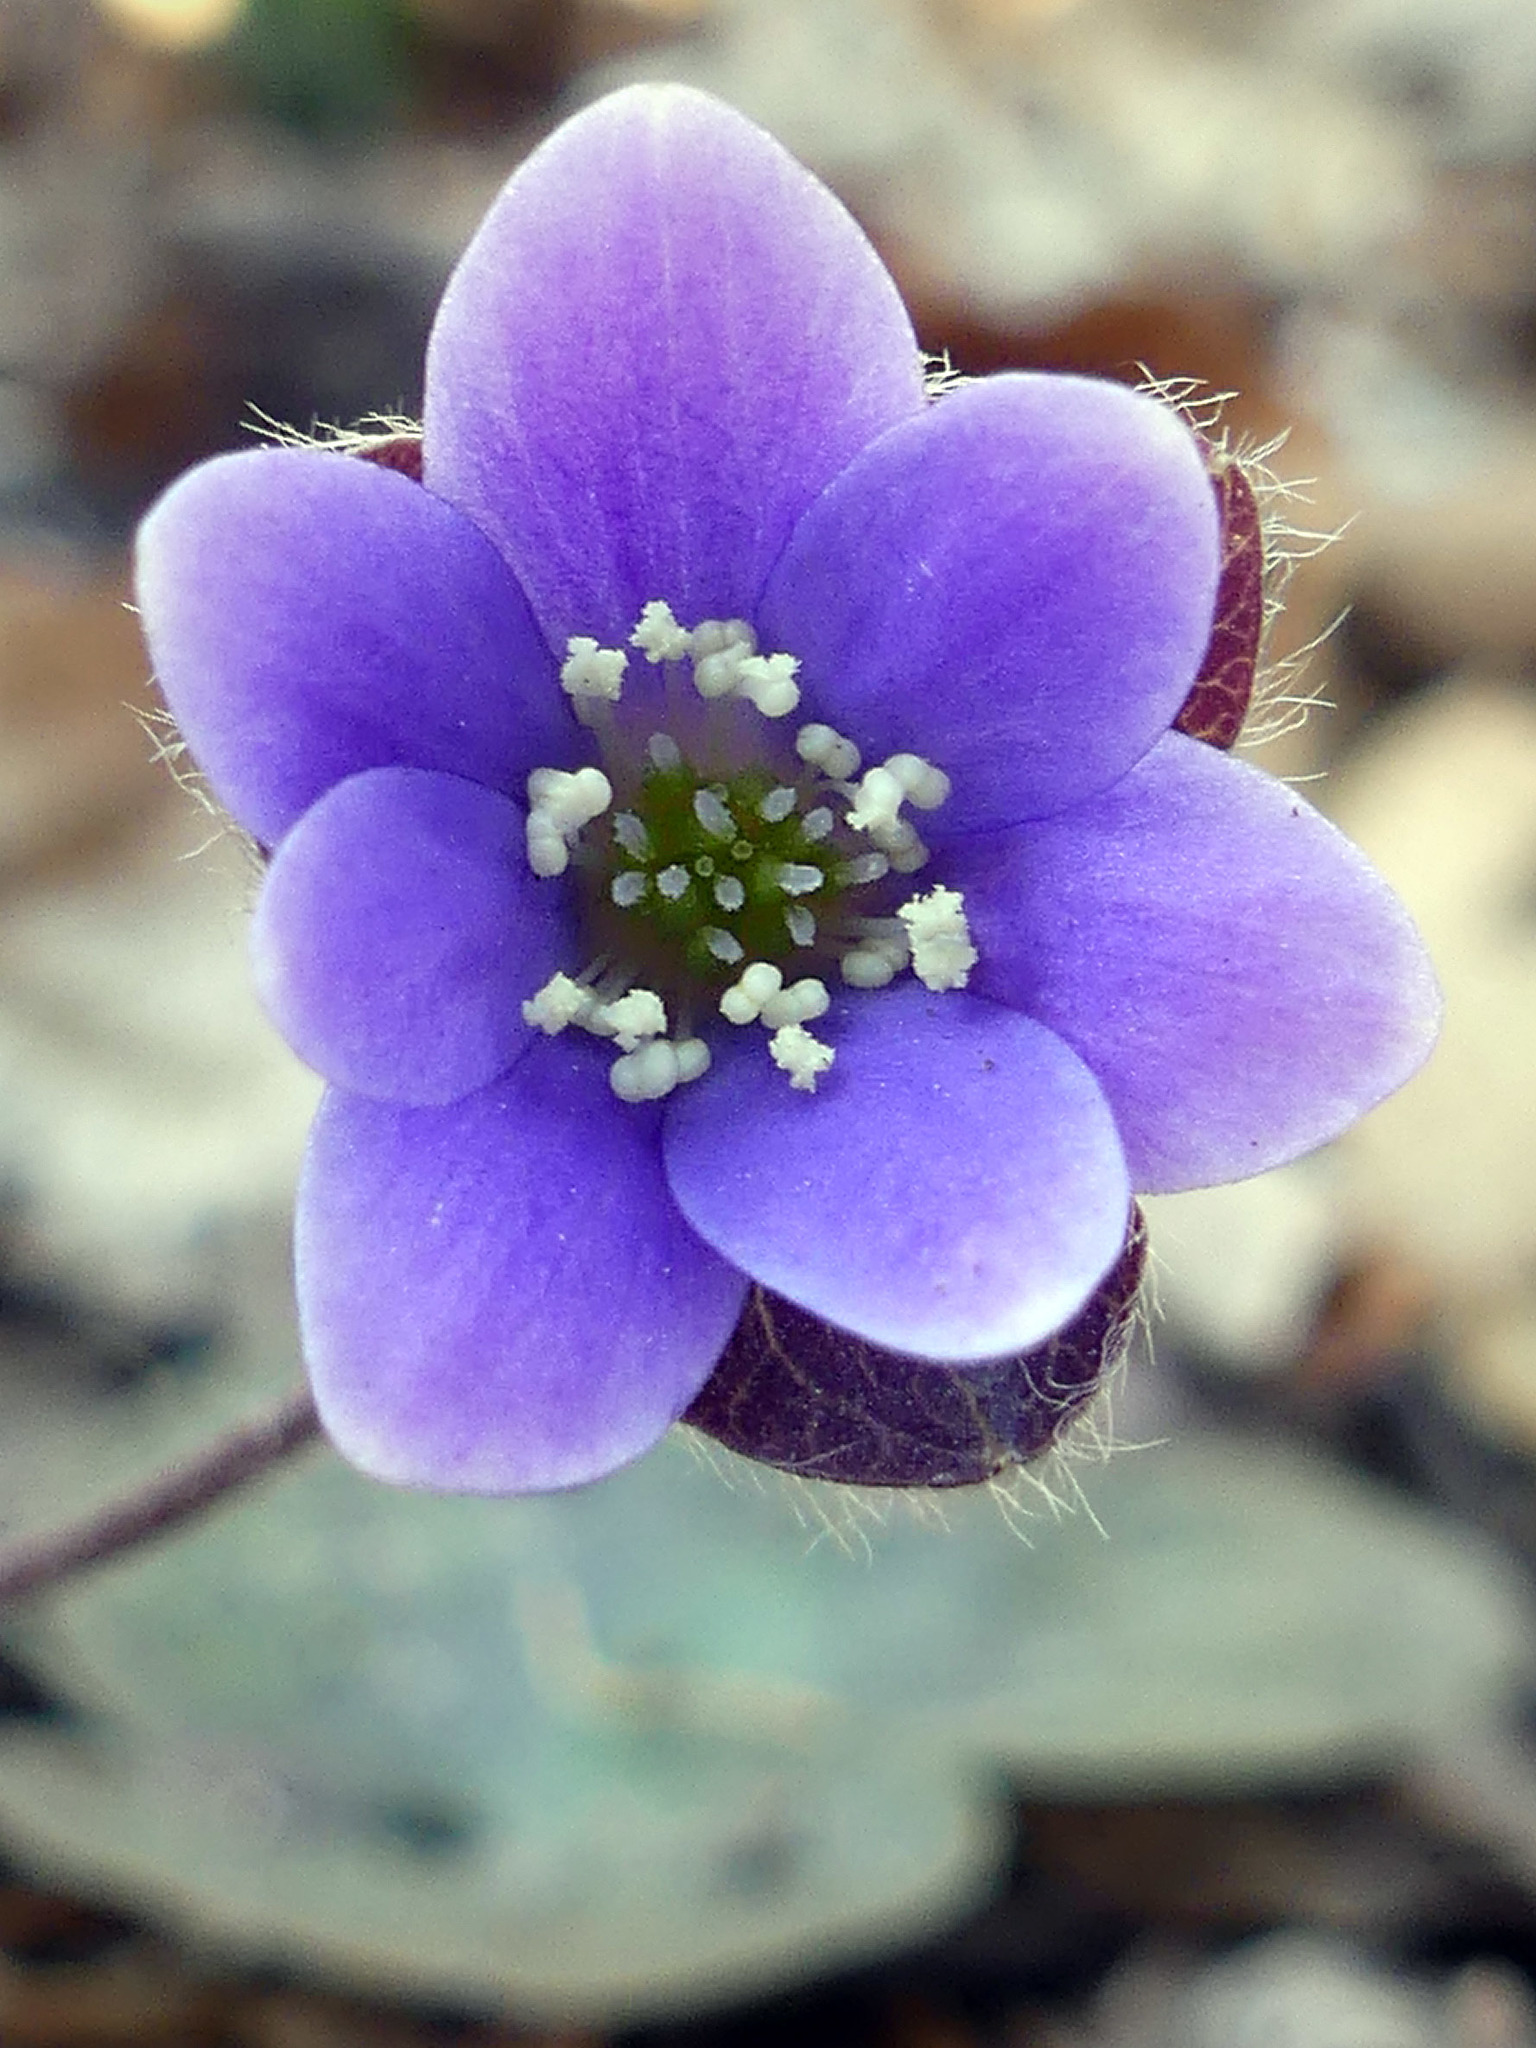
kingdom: Plantae
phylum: Tracheophyta
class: Magnoliopsida
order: Ranunculales
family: Ranunculaceae
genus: Hepatica
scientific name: Hepatica americana
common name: American hepatica
